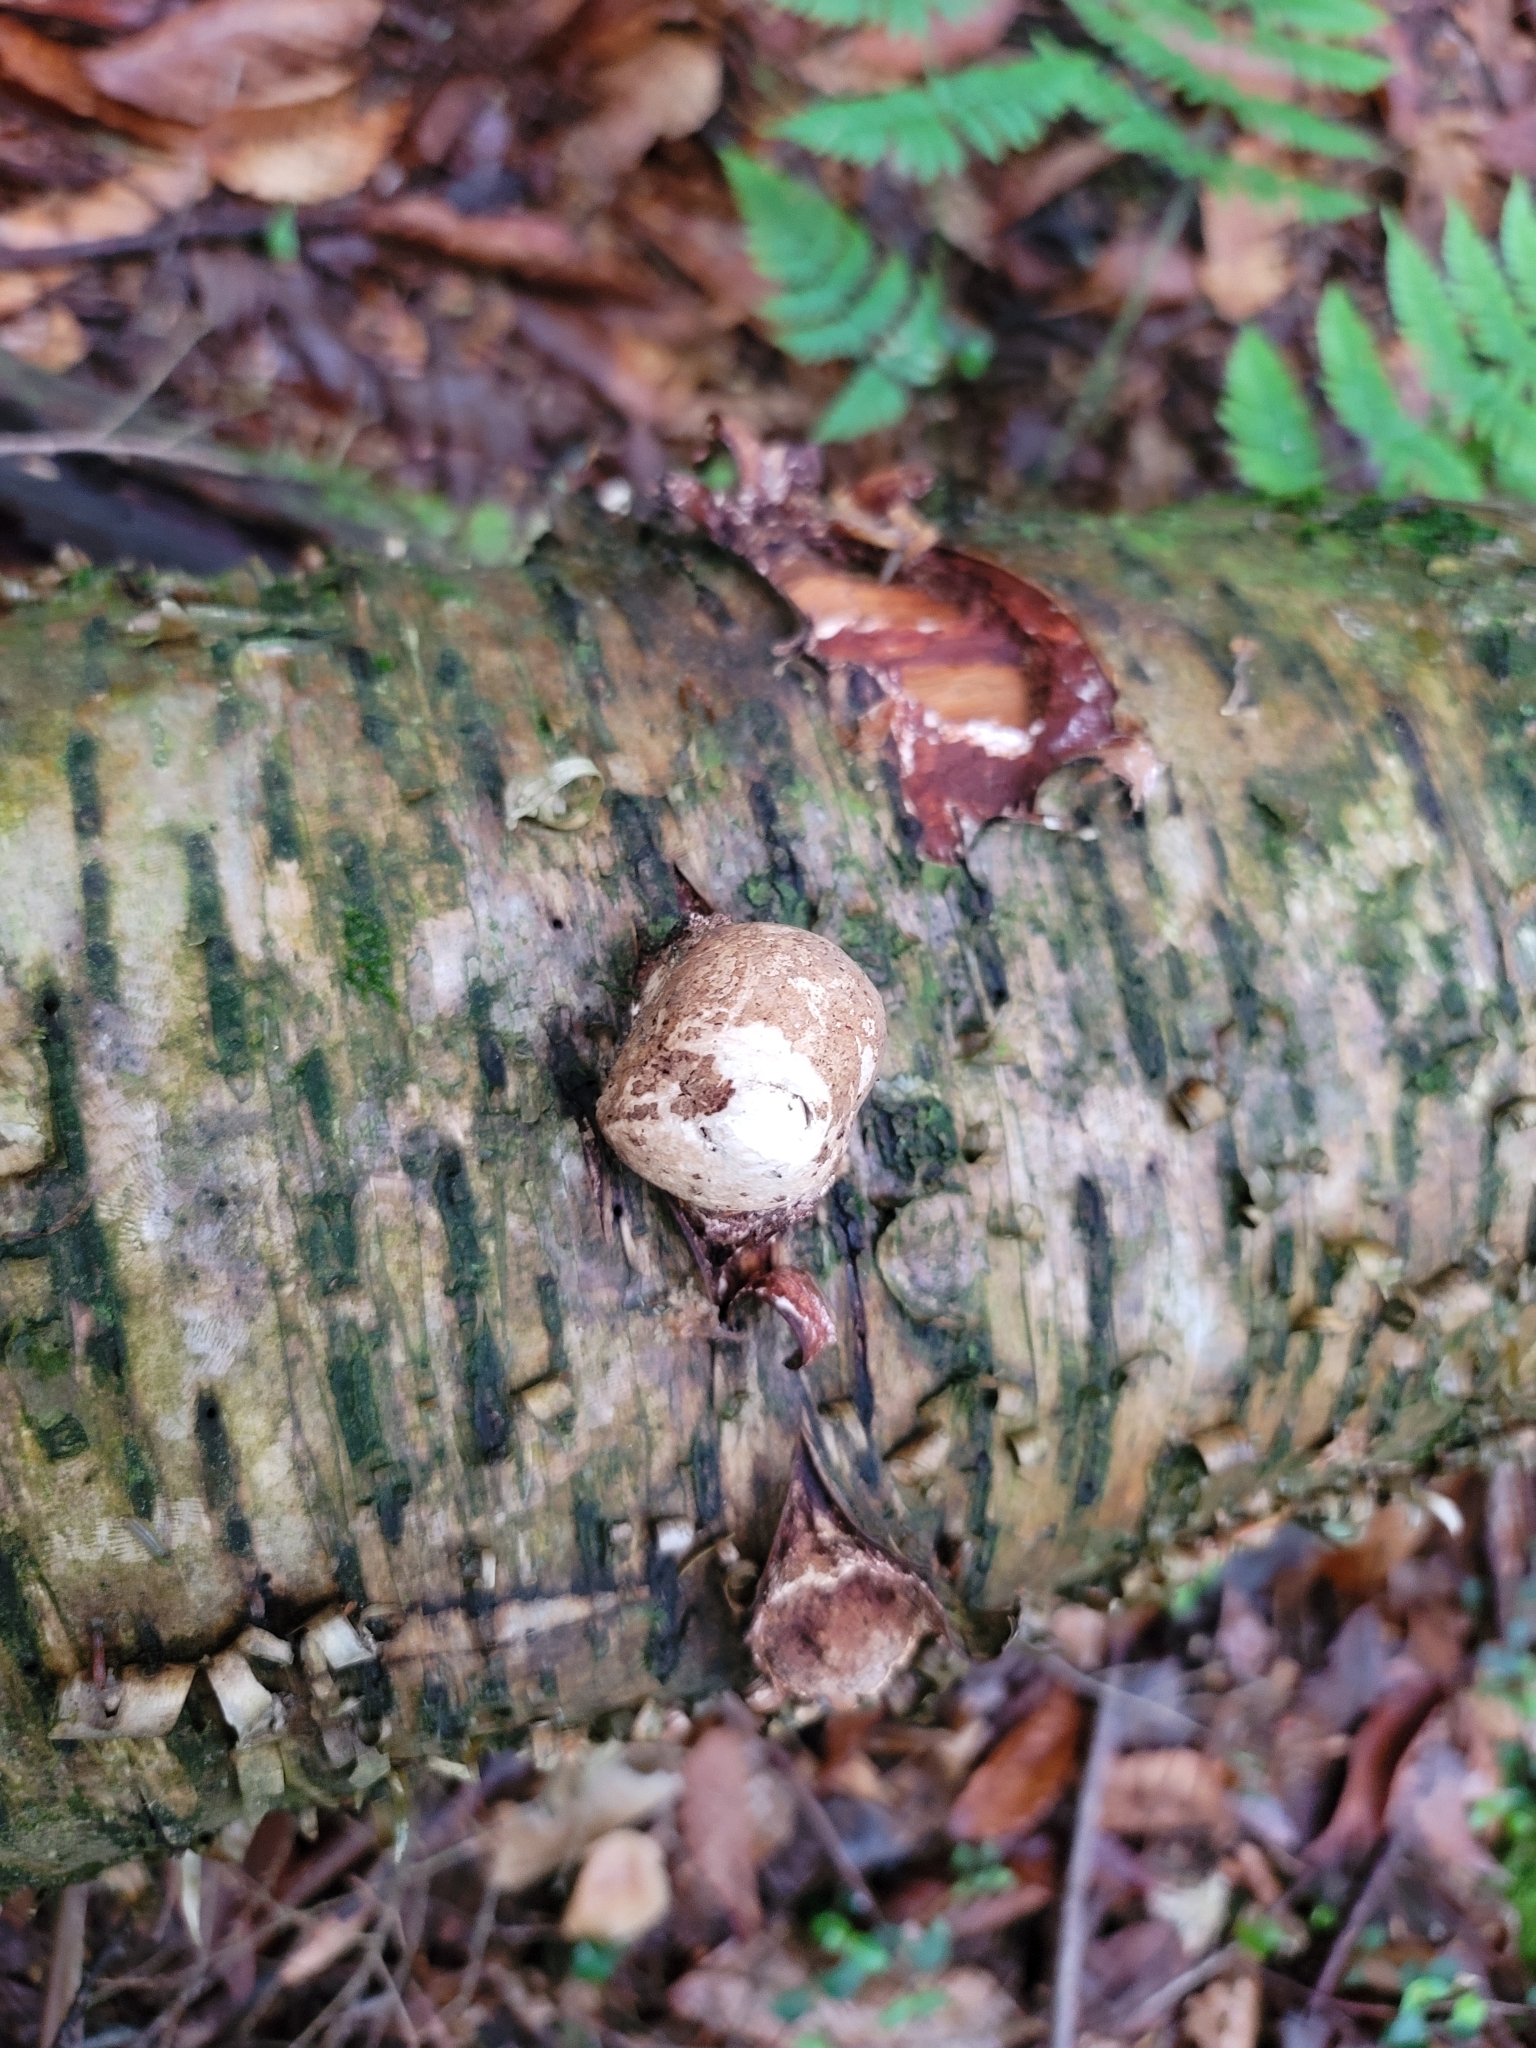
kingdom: Fungi
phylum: Basidiomycota
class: Agaricomycetes
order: Polyporales
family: Fomitopsidaceae
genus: Fomitopsis
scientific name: Fomitopsis betulina
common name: Birch polypore
